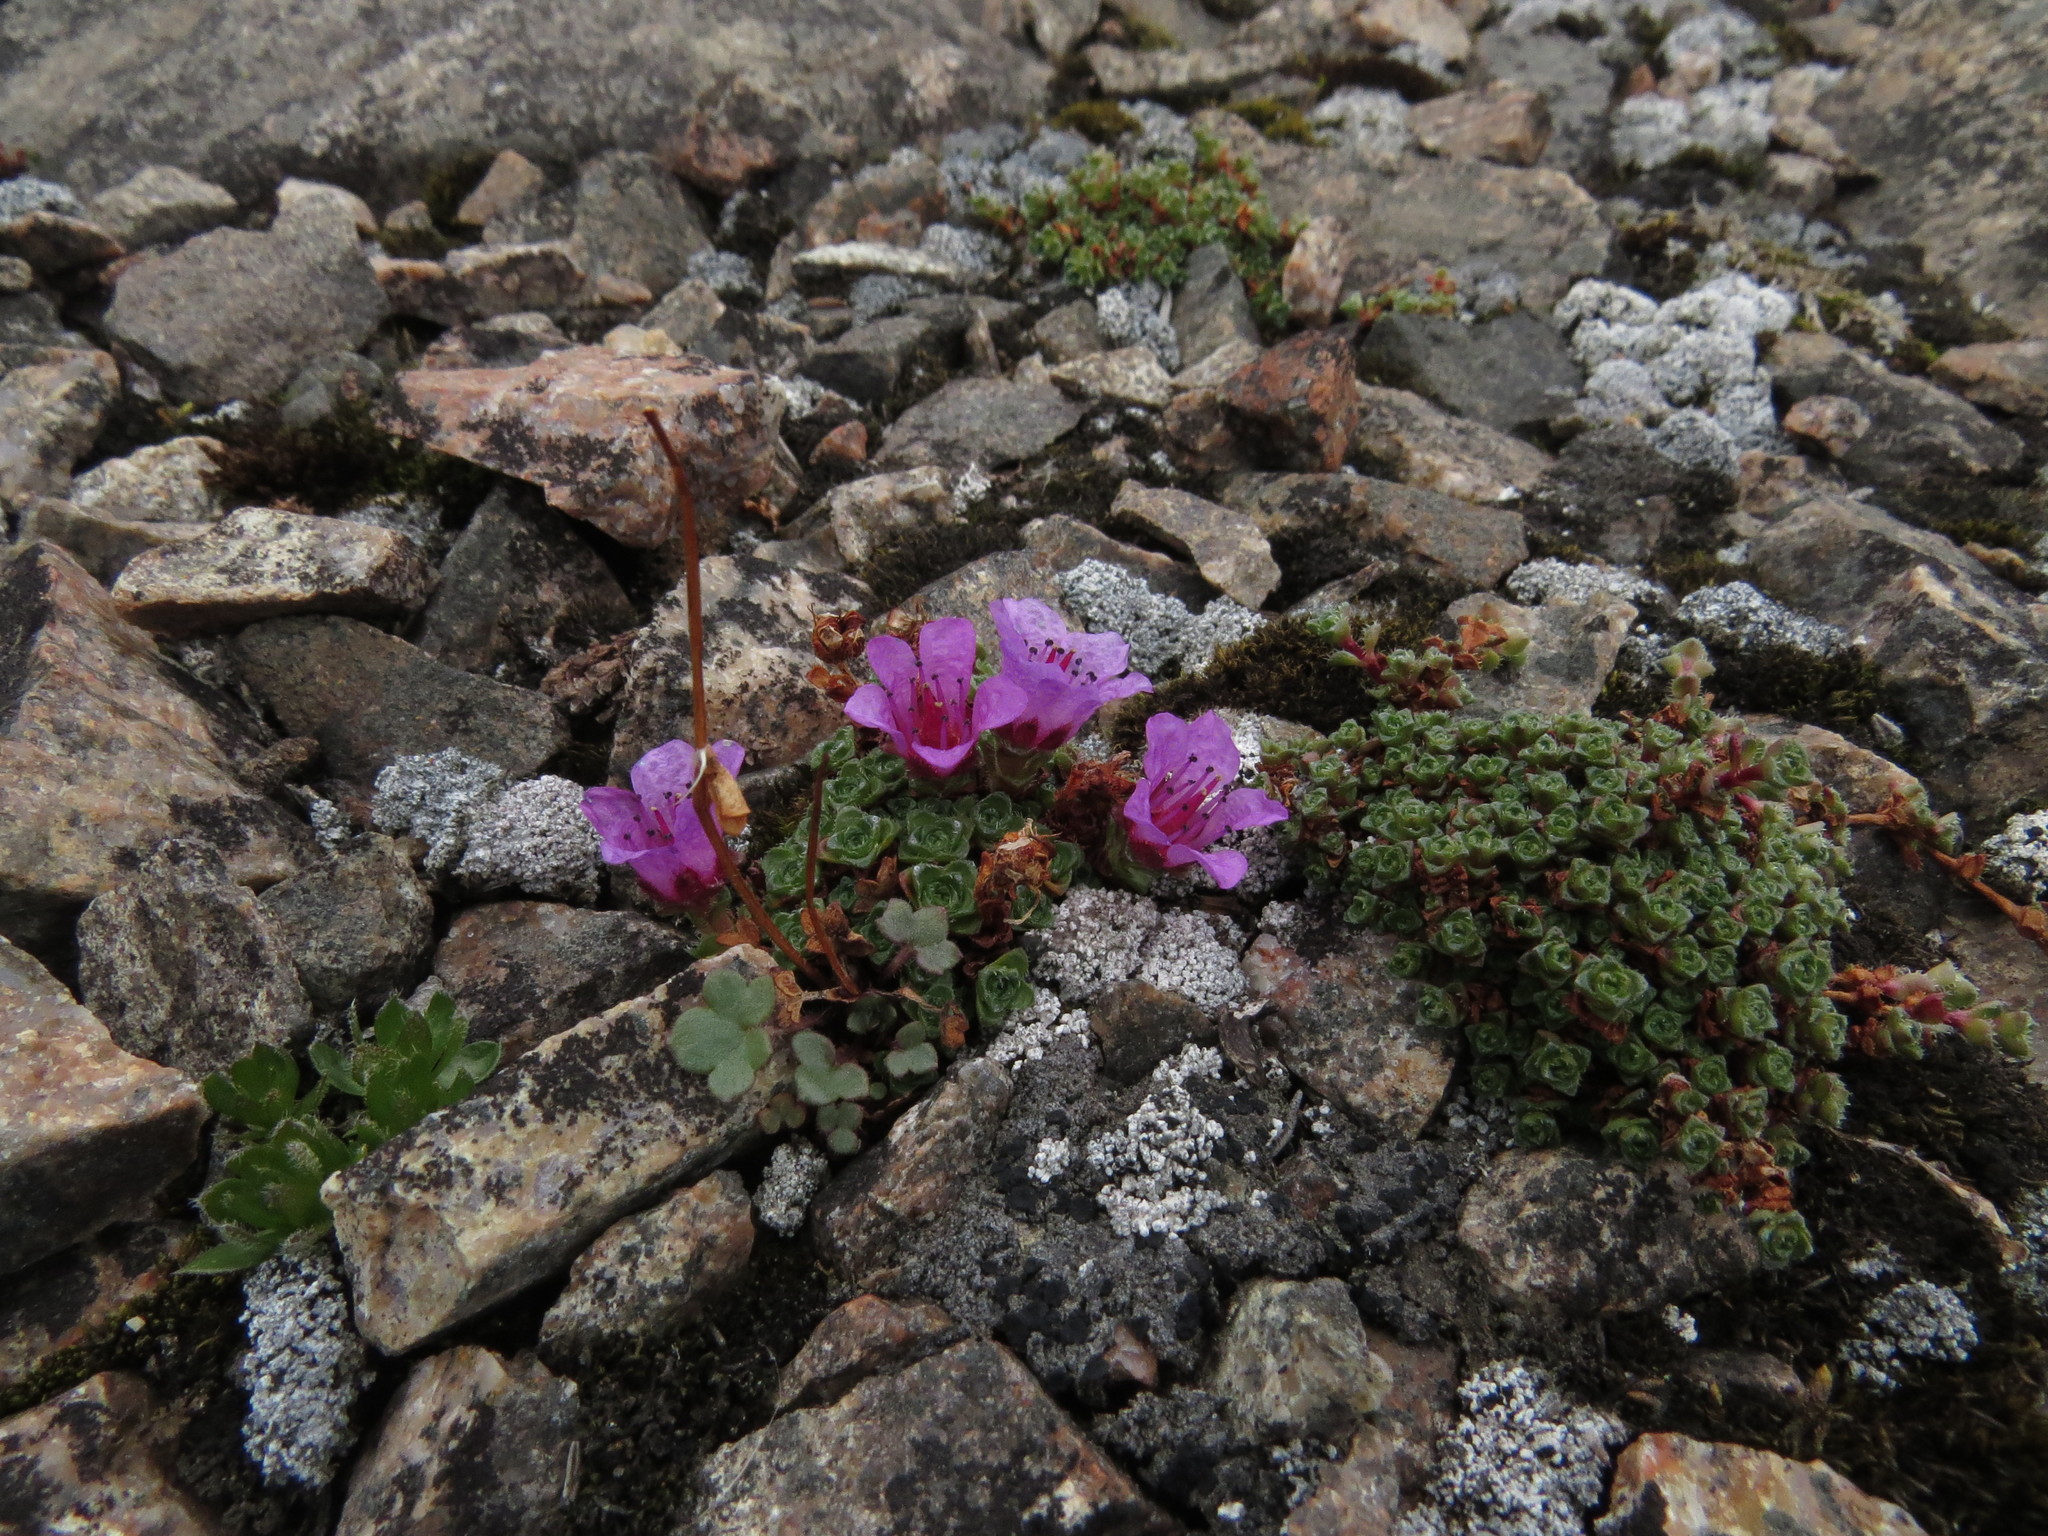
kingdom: Plantae
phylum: Tracheophyta
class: Magnoliopsida
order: Saxifragales
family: Saxifragaceae
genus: Saxifraga
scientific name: Saxifraga oppositifolia
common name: Purple saxifrage
